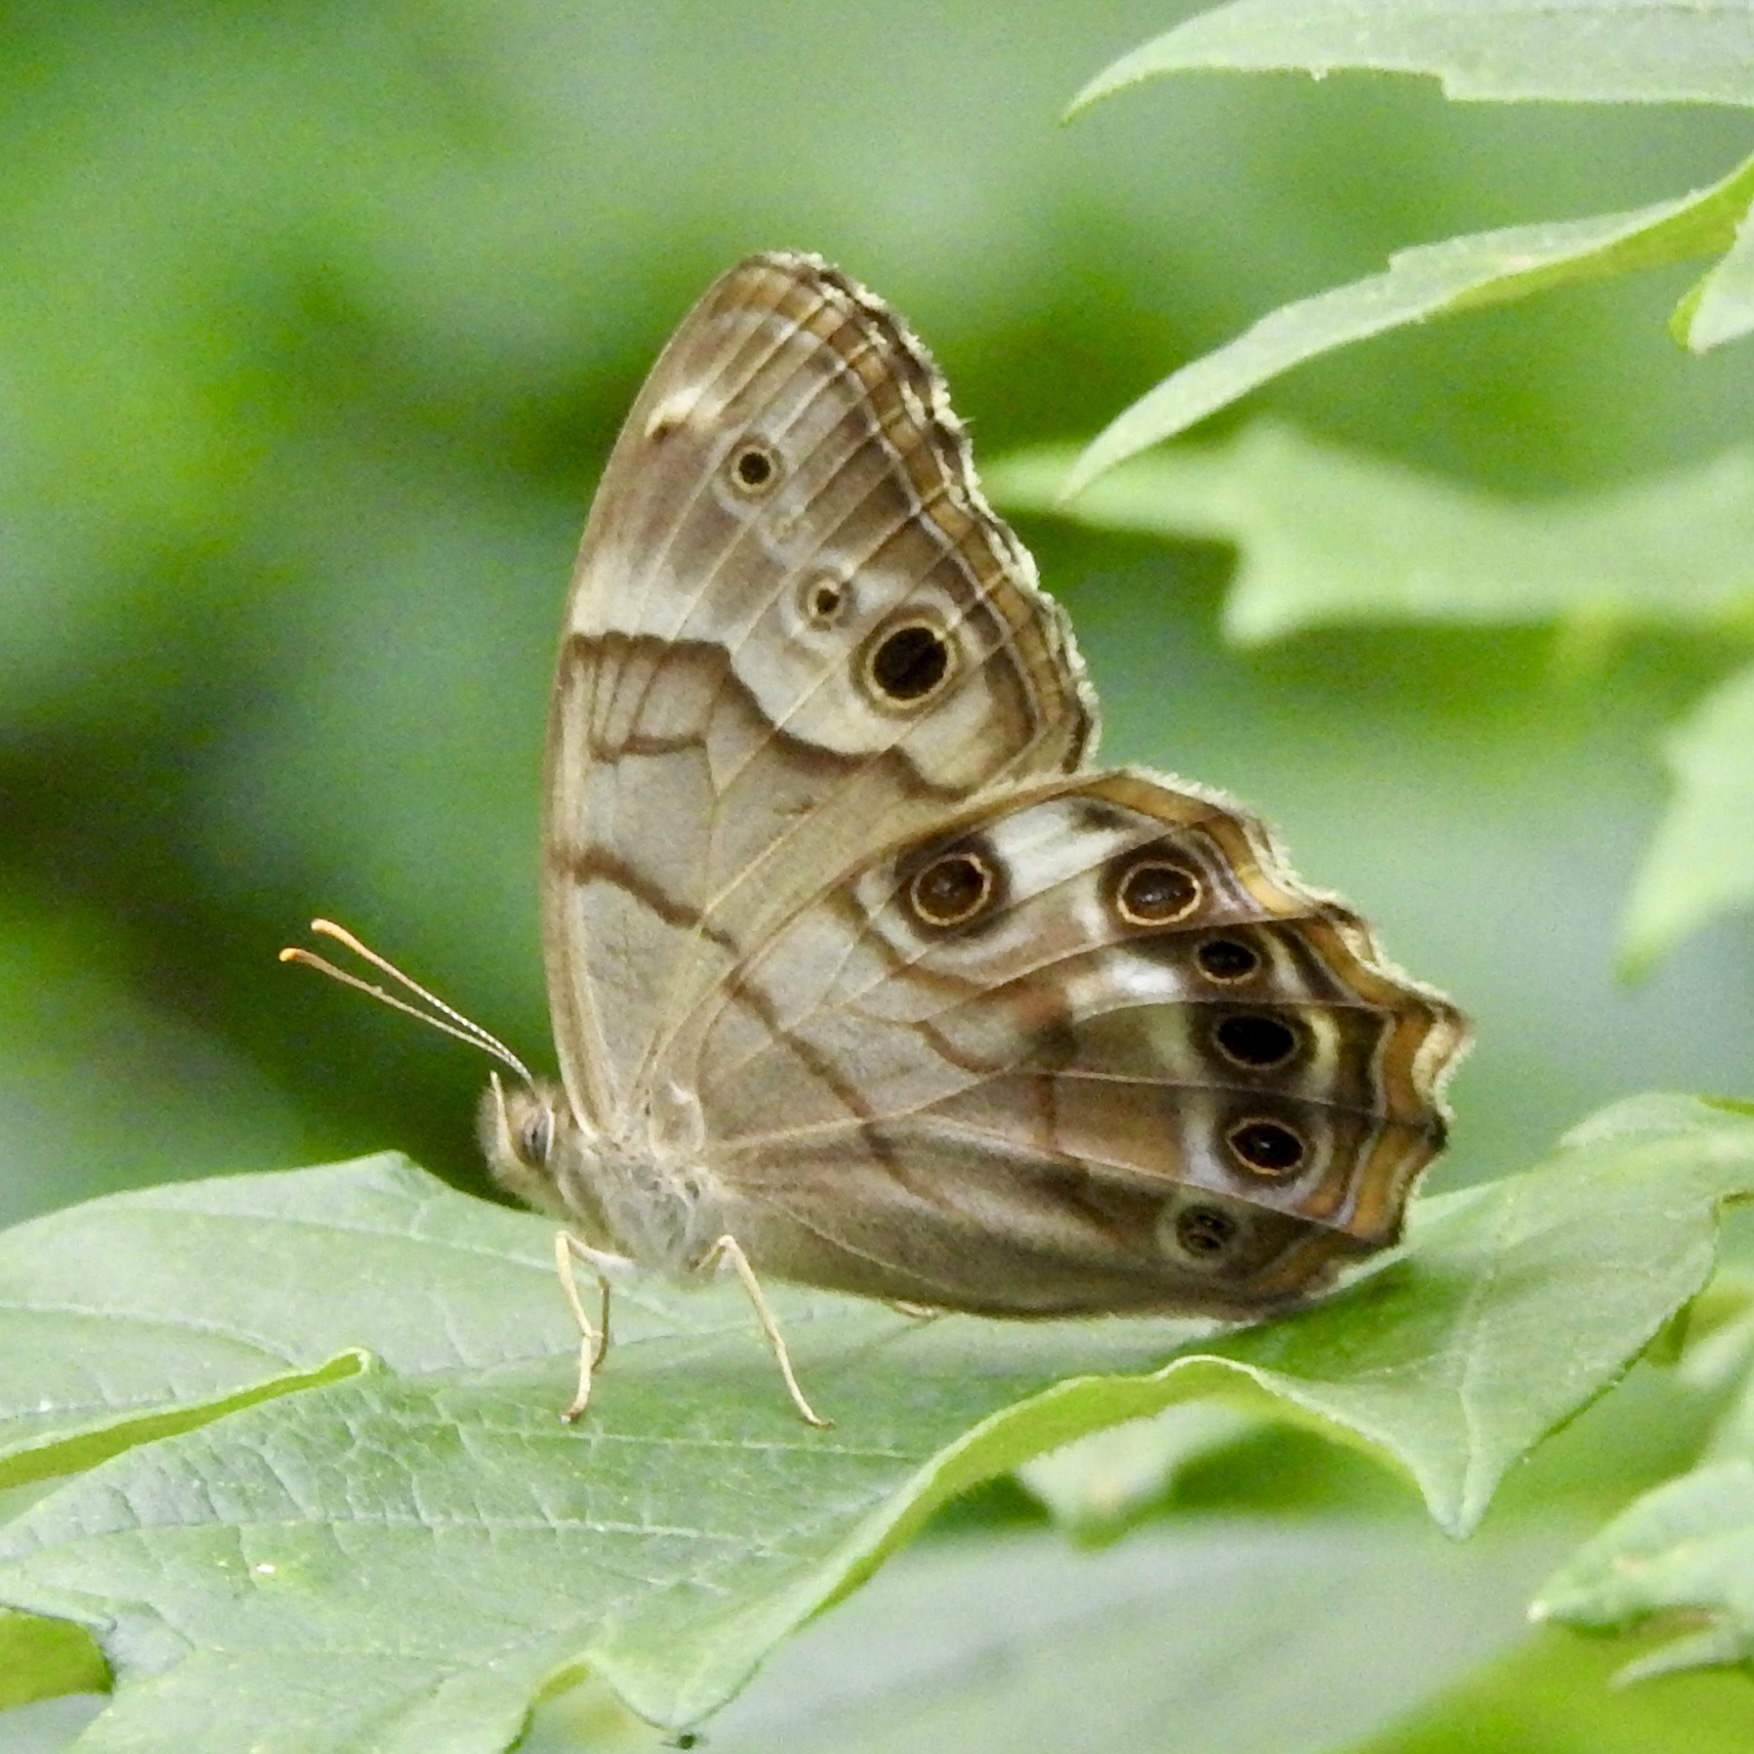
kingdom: Animalia
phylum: Arthropoda
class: Insecta
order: Lepidoptera
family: Nymphalidae
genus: Enodia
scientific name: Enodia portlandia
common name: Southern pearly-eye
